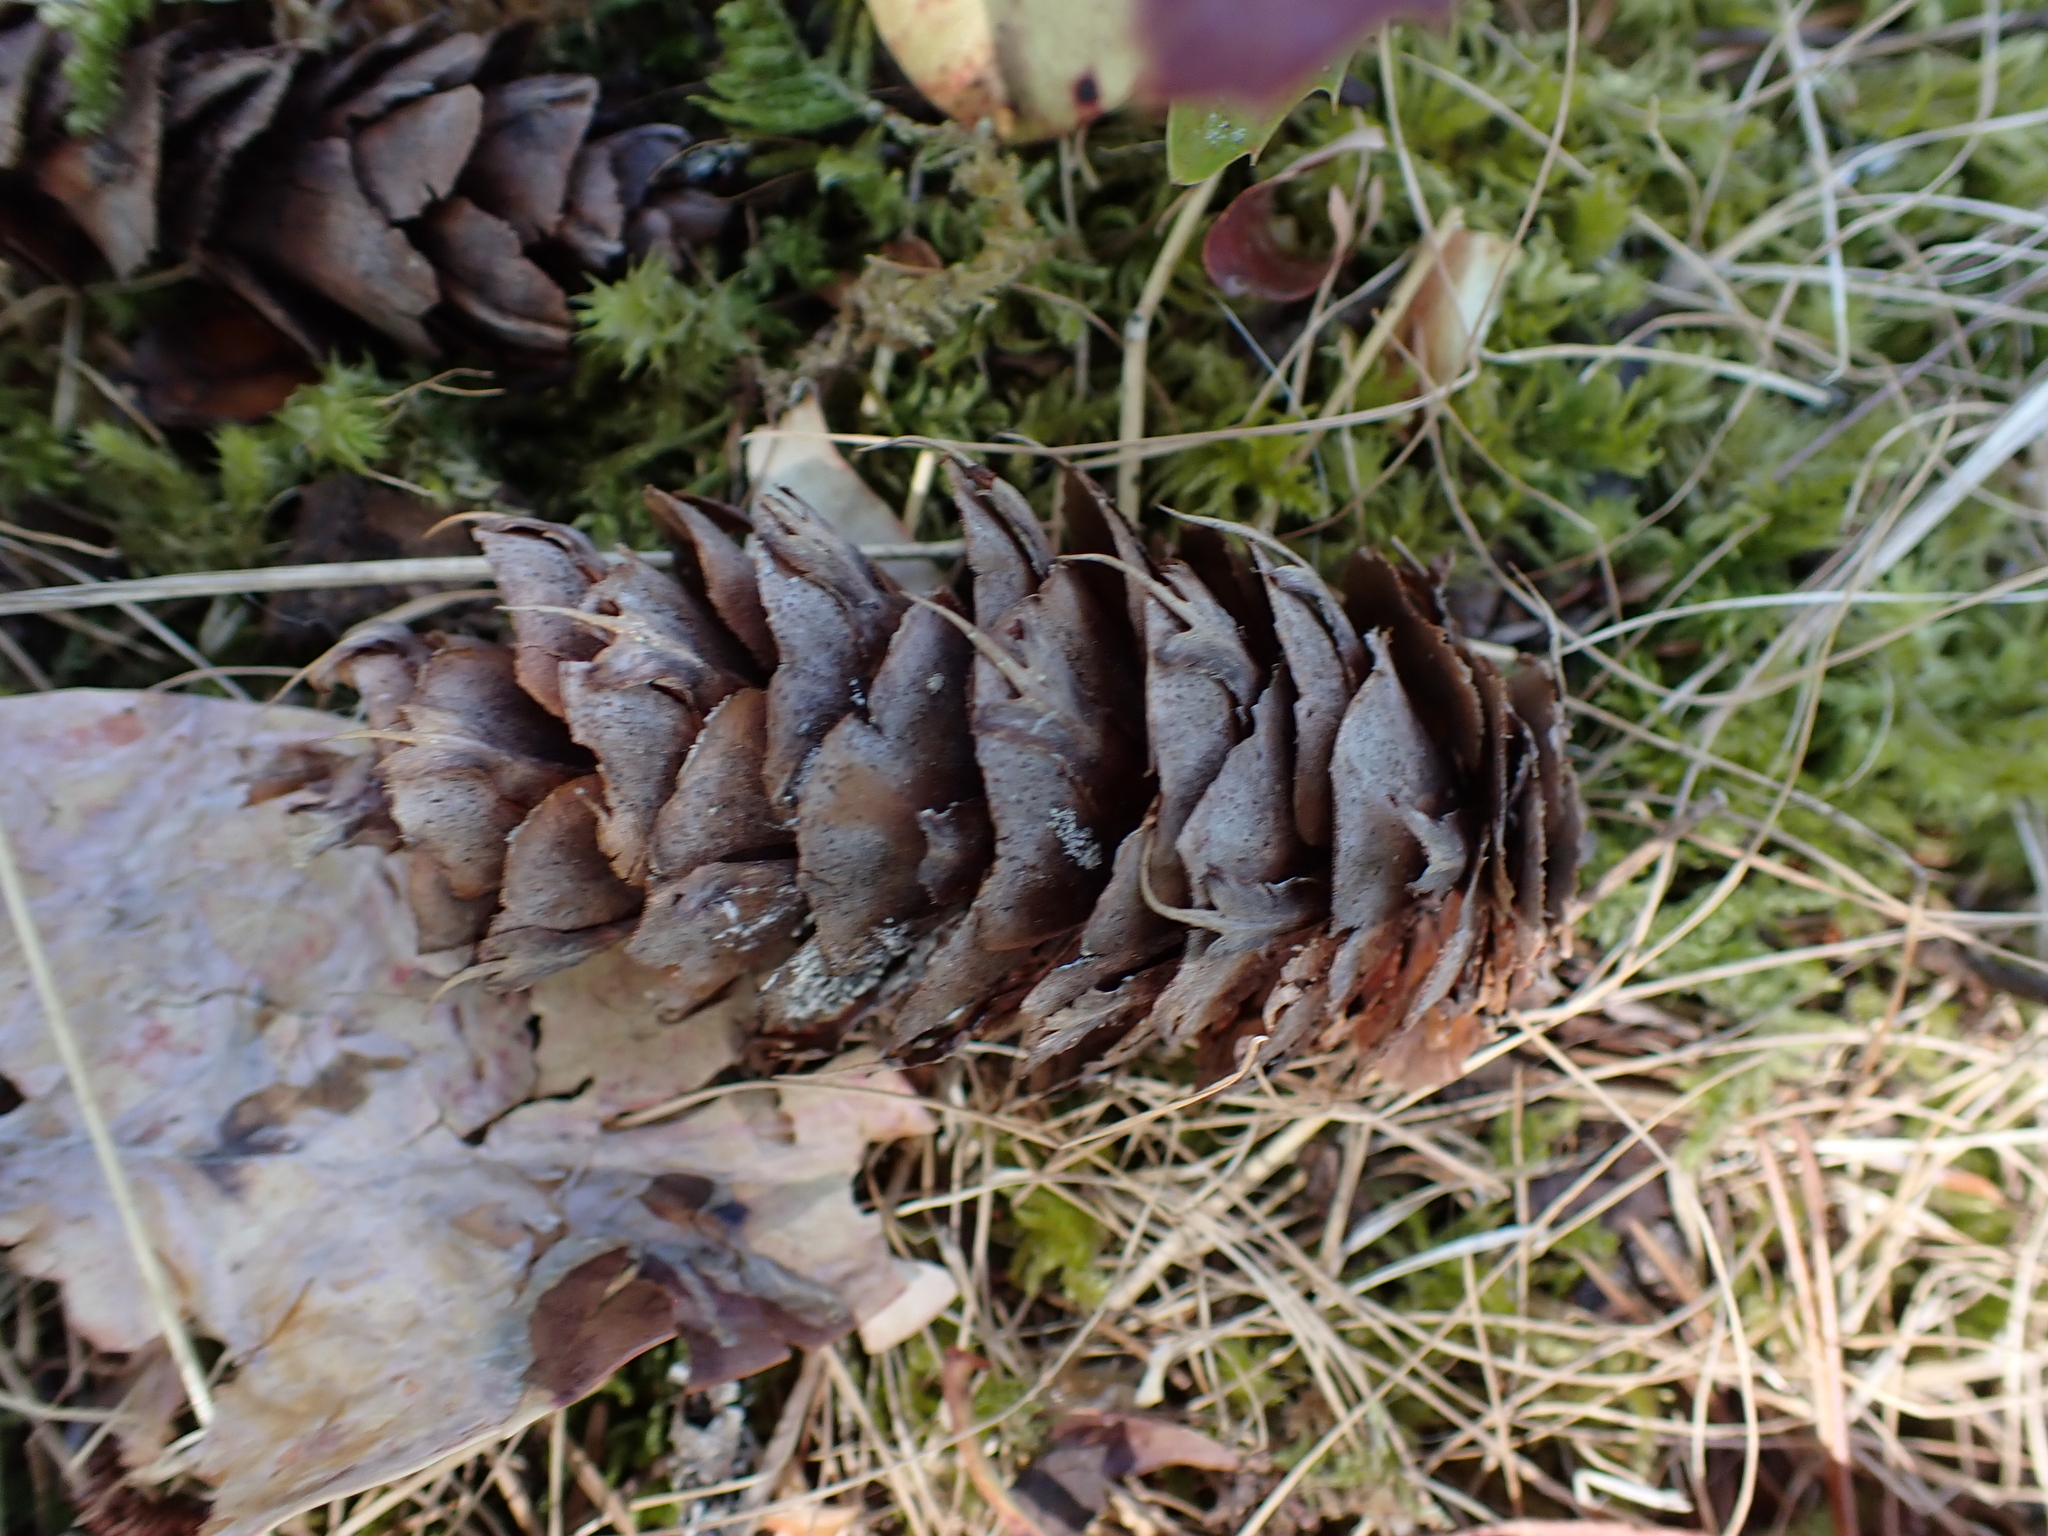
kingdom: Plantae
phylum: Tracheophyta
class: Pinopsida
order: Pinales
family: Pinaceae
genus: Pseudotsuga
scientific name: Pseudotsuga menziesii
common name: Douglas fir
